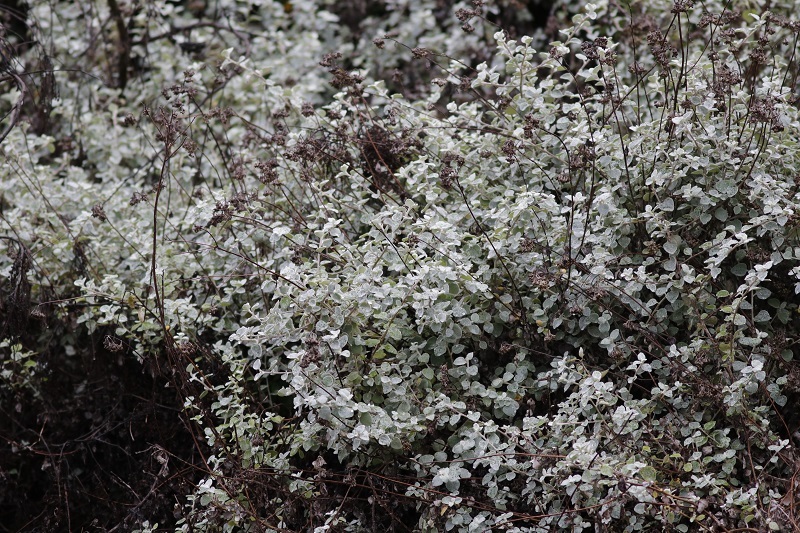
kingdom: Plantae
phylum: Tracheophyta
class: Magnoliopsida
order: Asterales
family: Asteraceae
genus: Helichrysum
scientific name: Helichrysum petiolare
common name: Licorice-plant
